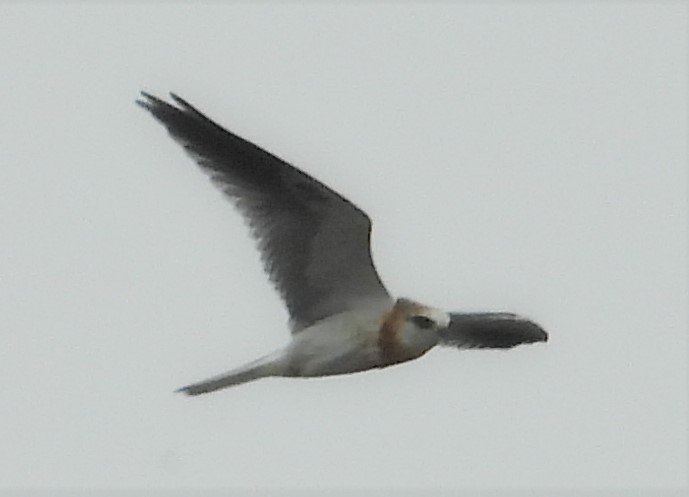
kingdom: Animalia
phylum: Chordata
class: Aves
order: Accipitriformes
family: Accipitridae
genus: Elanus
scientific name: Elanus leucurus
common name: White-tailed kite
